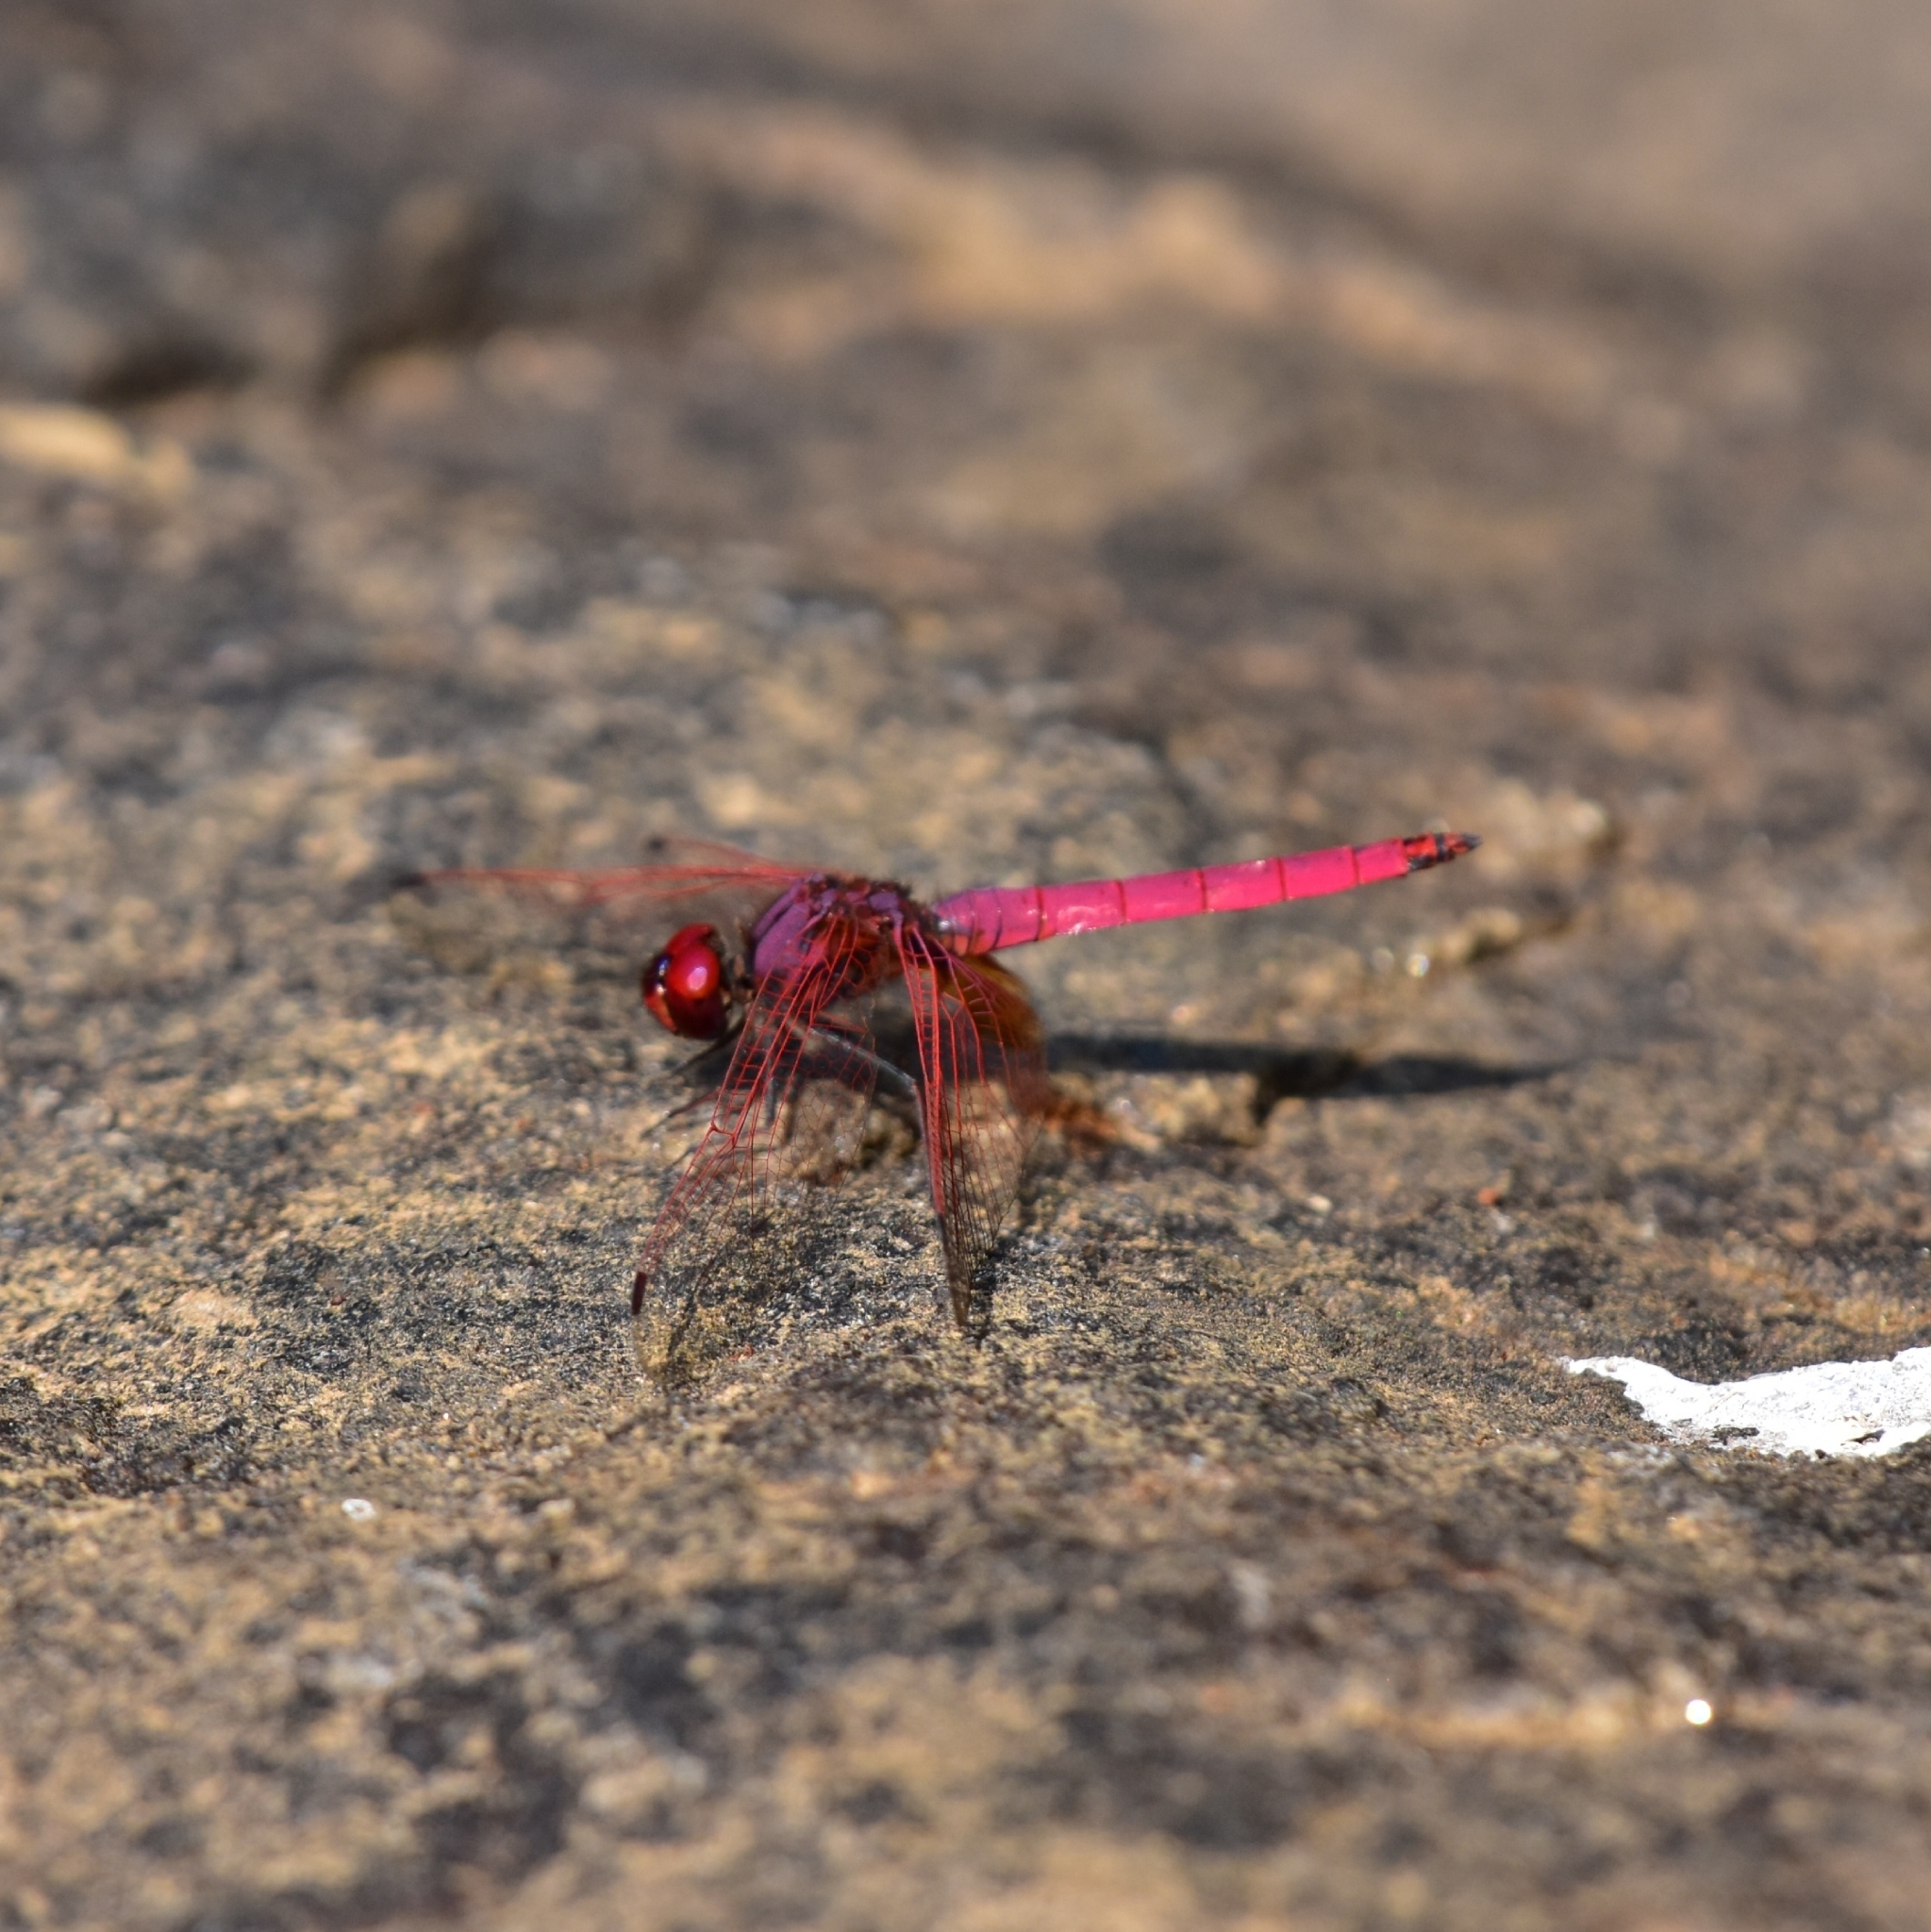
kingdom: Animalia
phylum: Arthropoda
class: Insecta
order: Odonata
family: Libellulidae
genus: Trithemis
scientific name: Trithemis aurora
